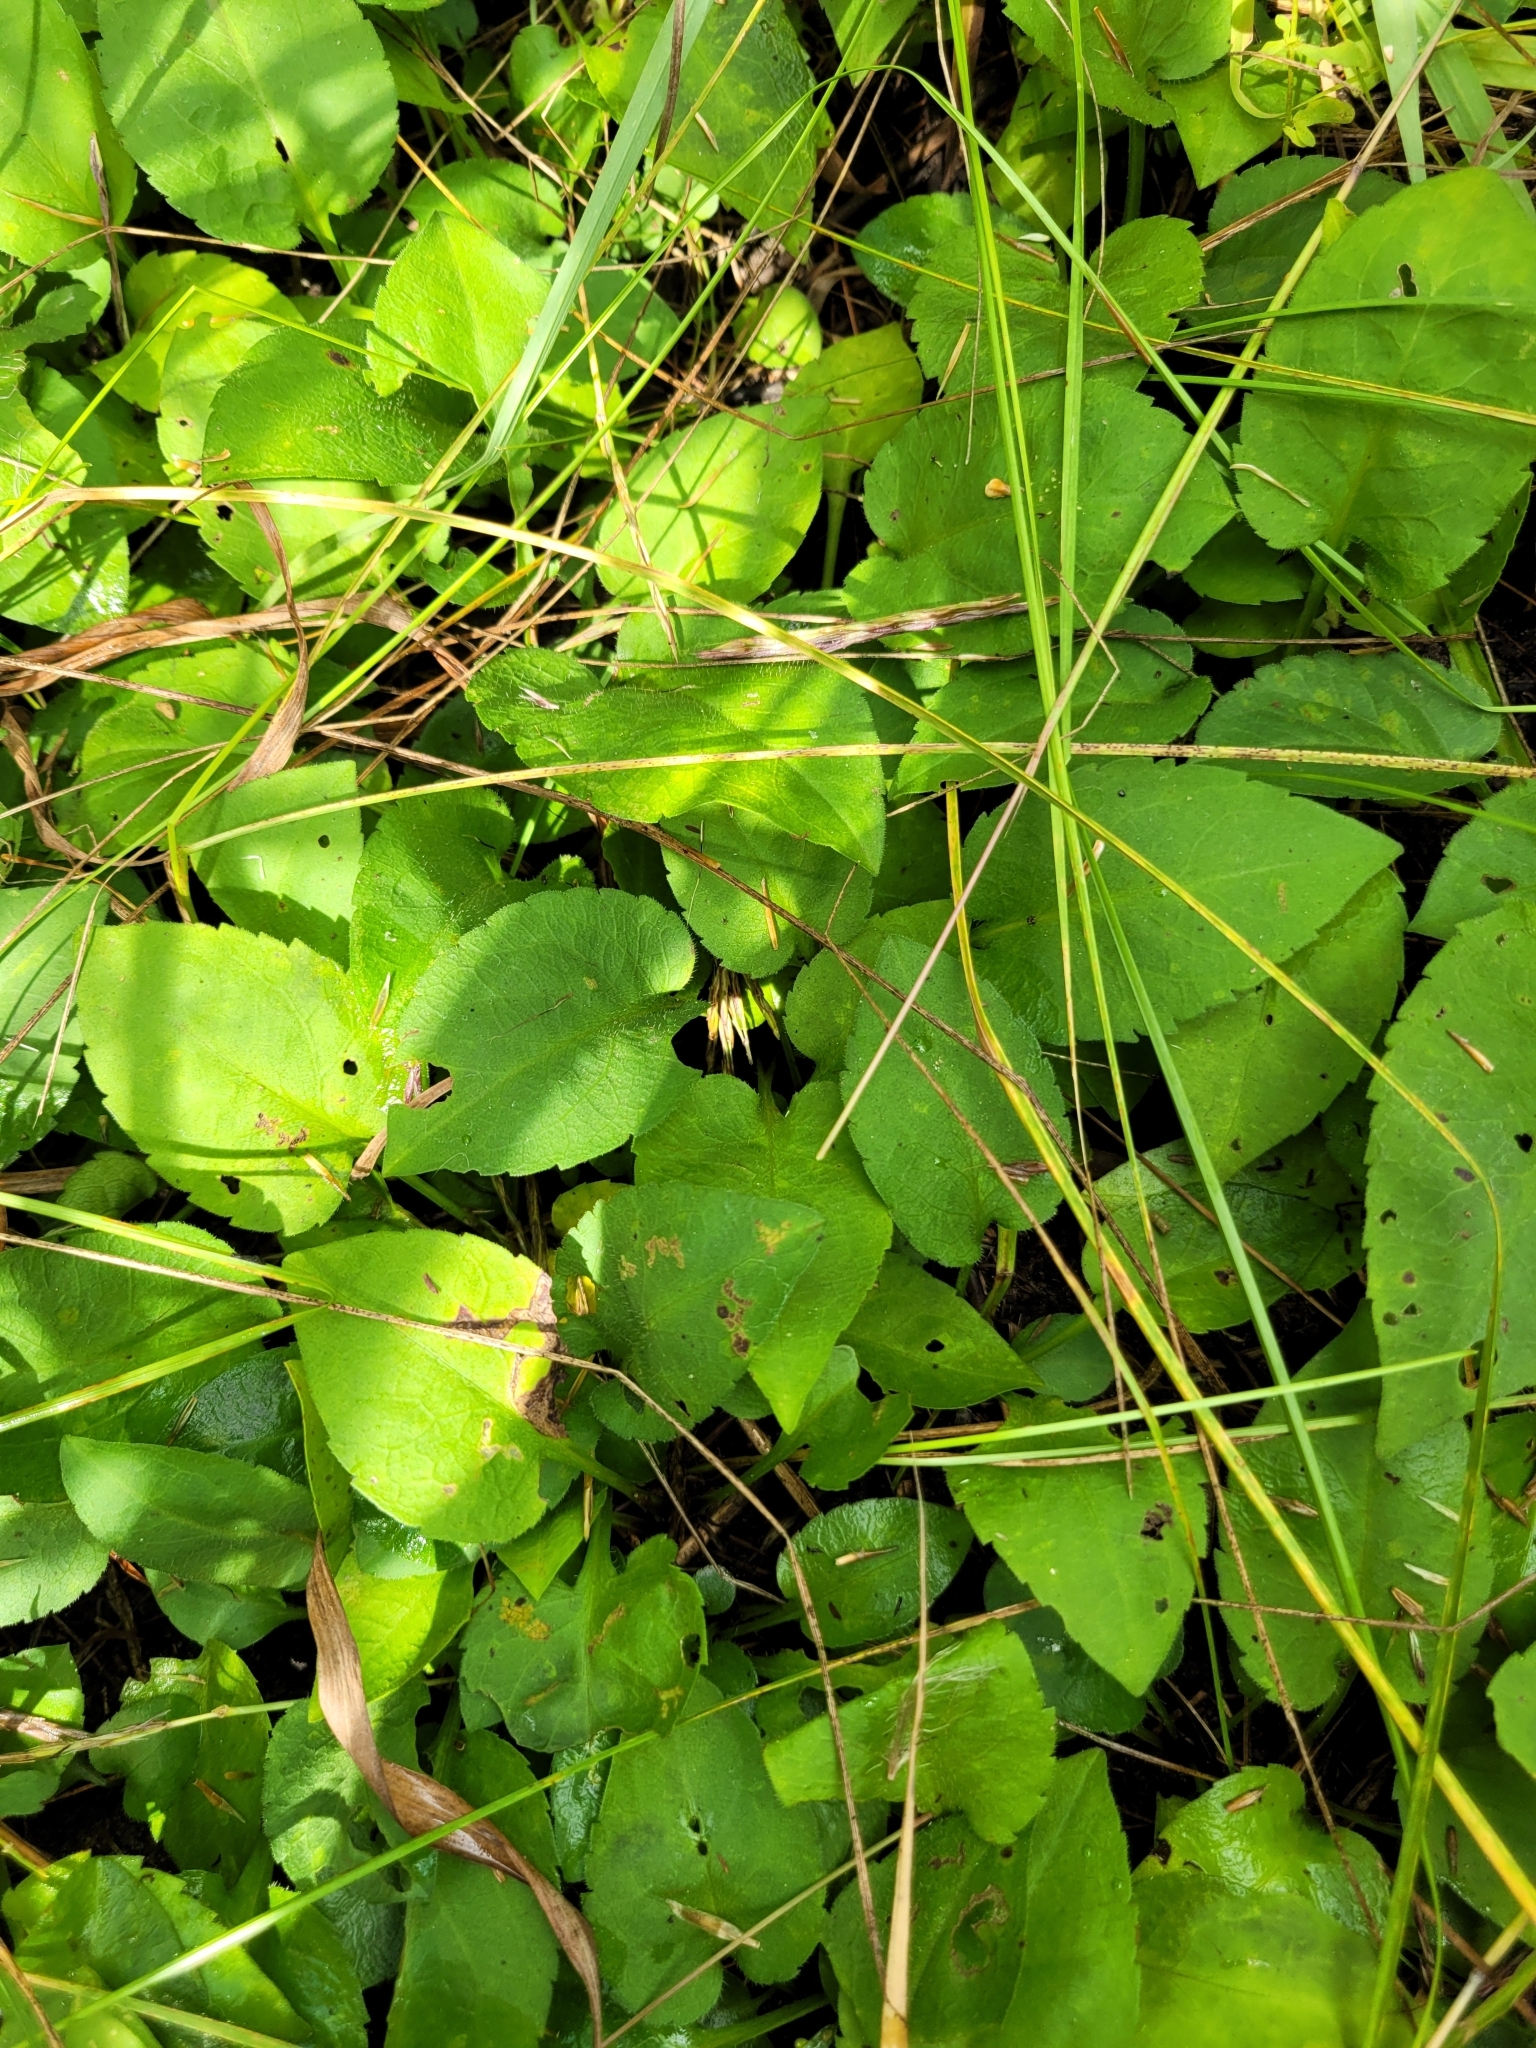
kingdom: Plantae
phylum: Tracheophyta
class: Magnoliopsida
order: Asterales
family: Asteraceae
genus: Symphyotrichum
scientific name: Symphyotrichum cordifolium
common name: Beeweed
